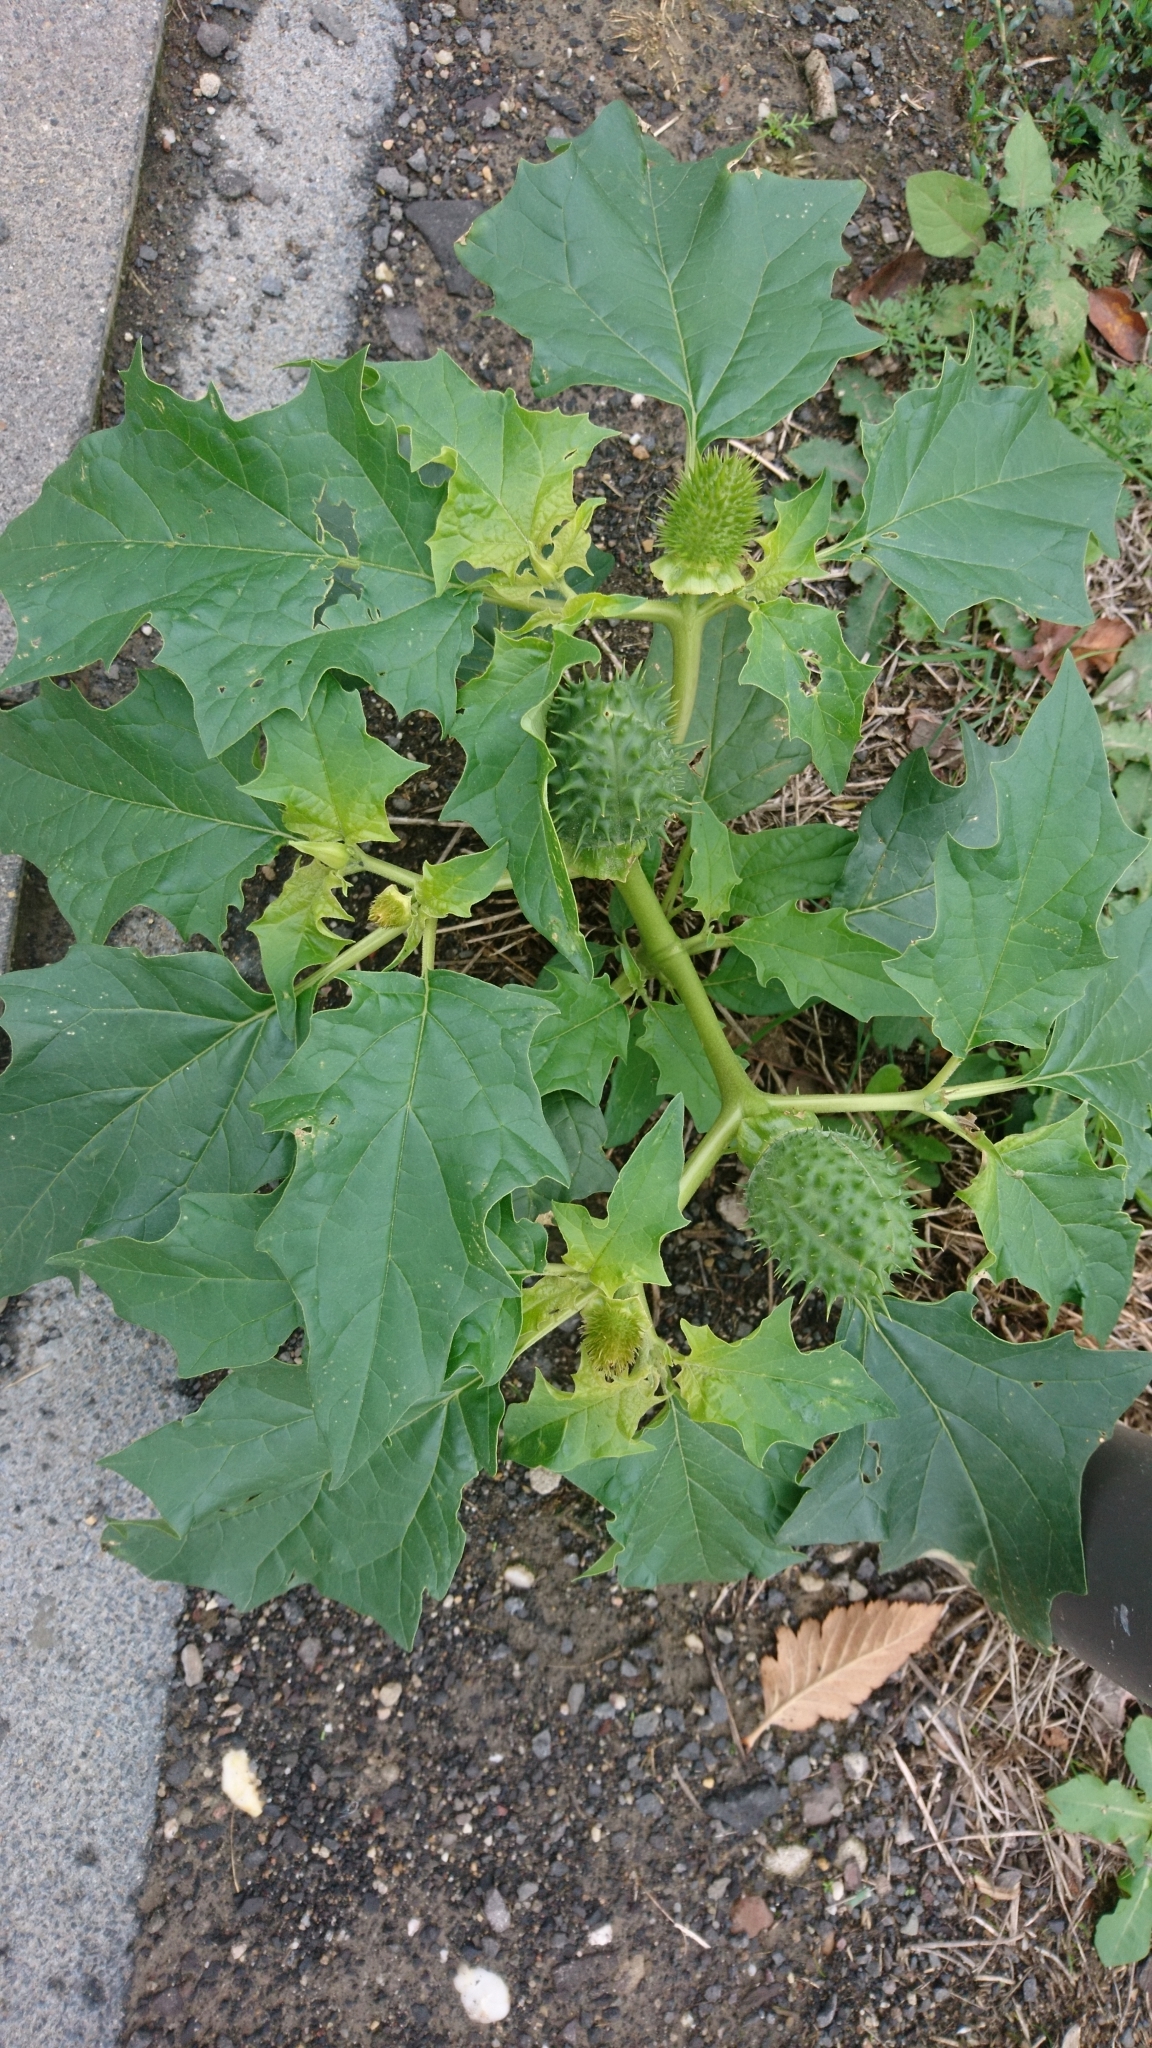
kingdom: Plantae
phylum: Tracheophyta
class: Magnoliopsida
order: Solanales
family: Solanaceae
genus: Datura
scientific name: Datura stramonium
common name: Thorn-apple
